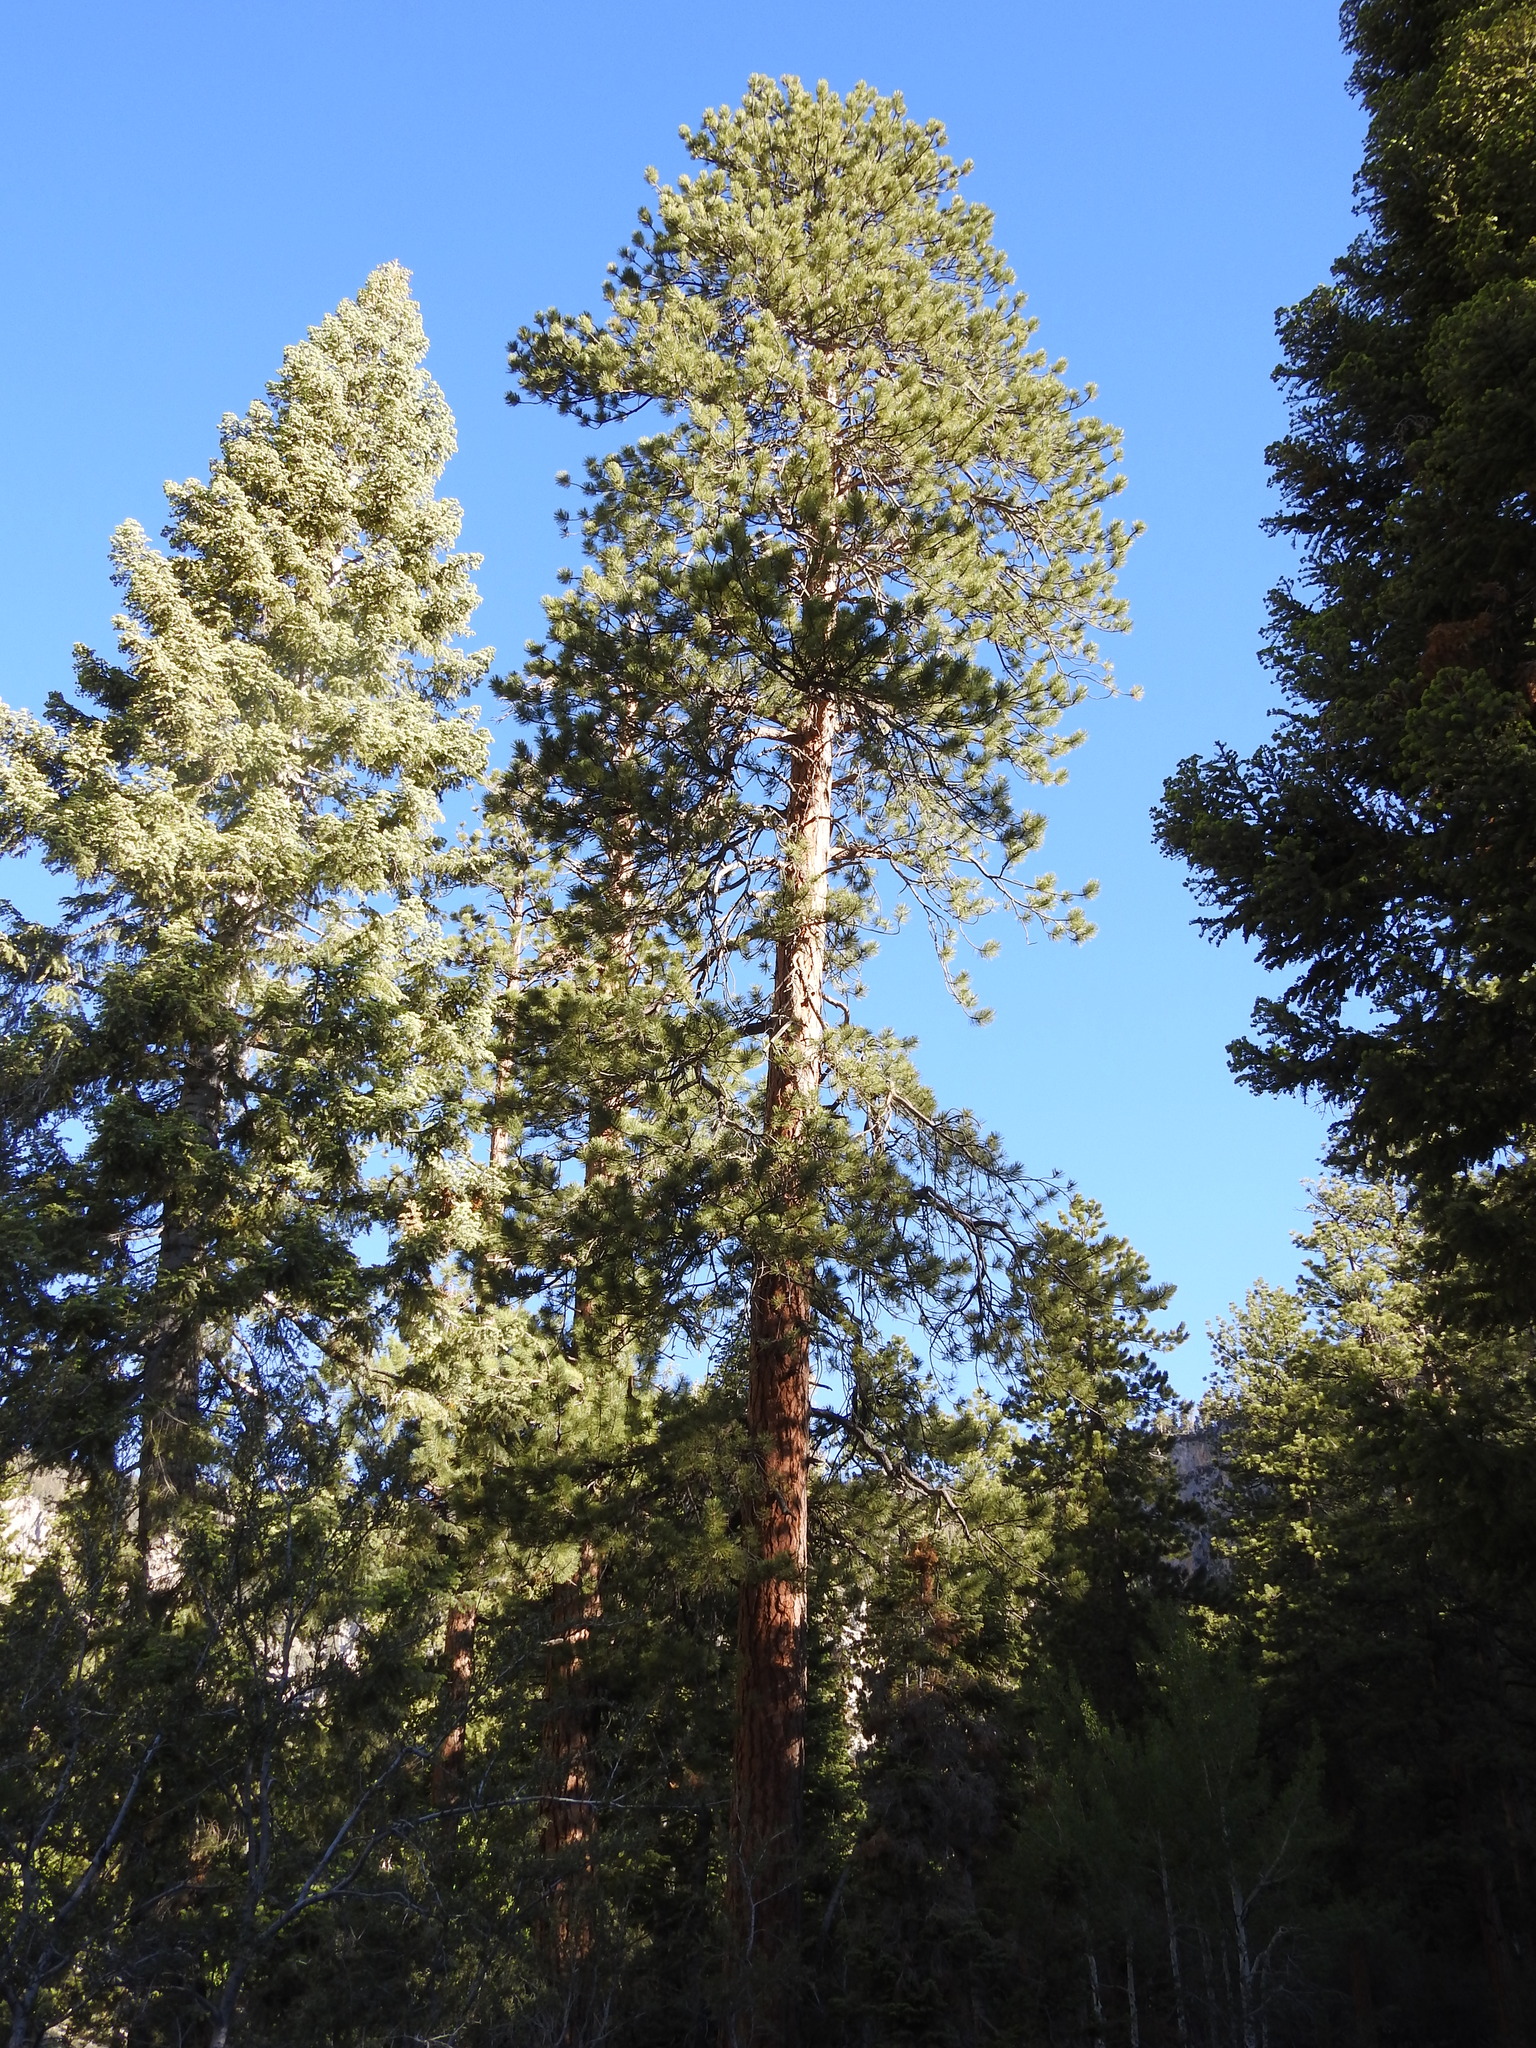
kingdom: Plantae
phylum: Tracheophyta
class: Pinopsida
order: Pinales
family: Pinaceae
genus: Pinus
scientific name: Pinus ponderosa
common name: Western yellow-pine
